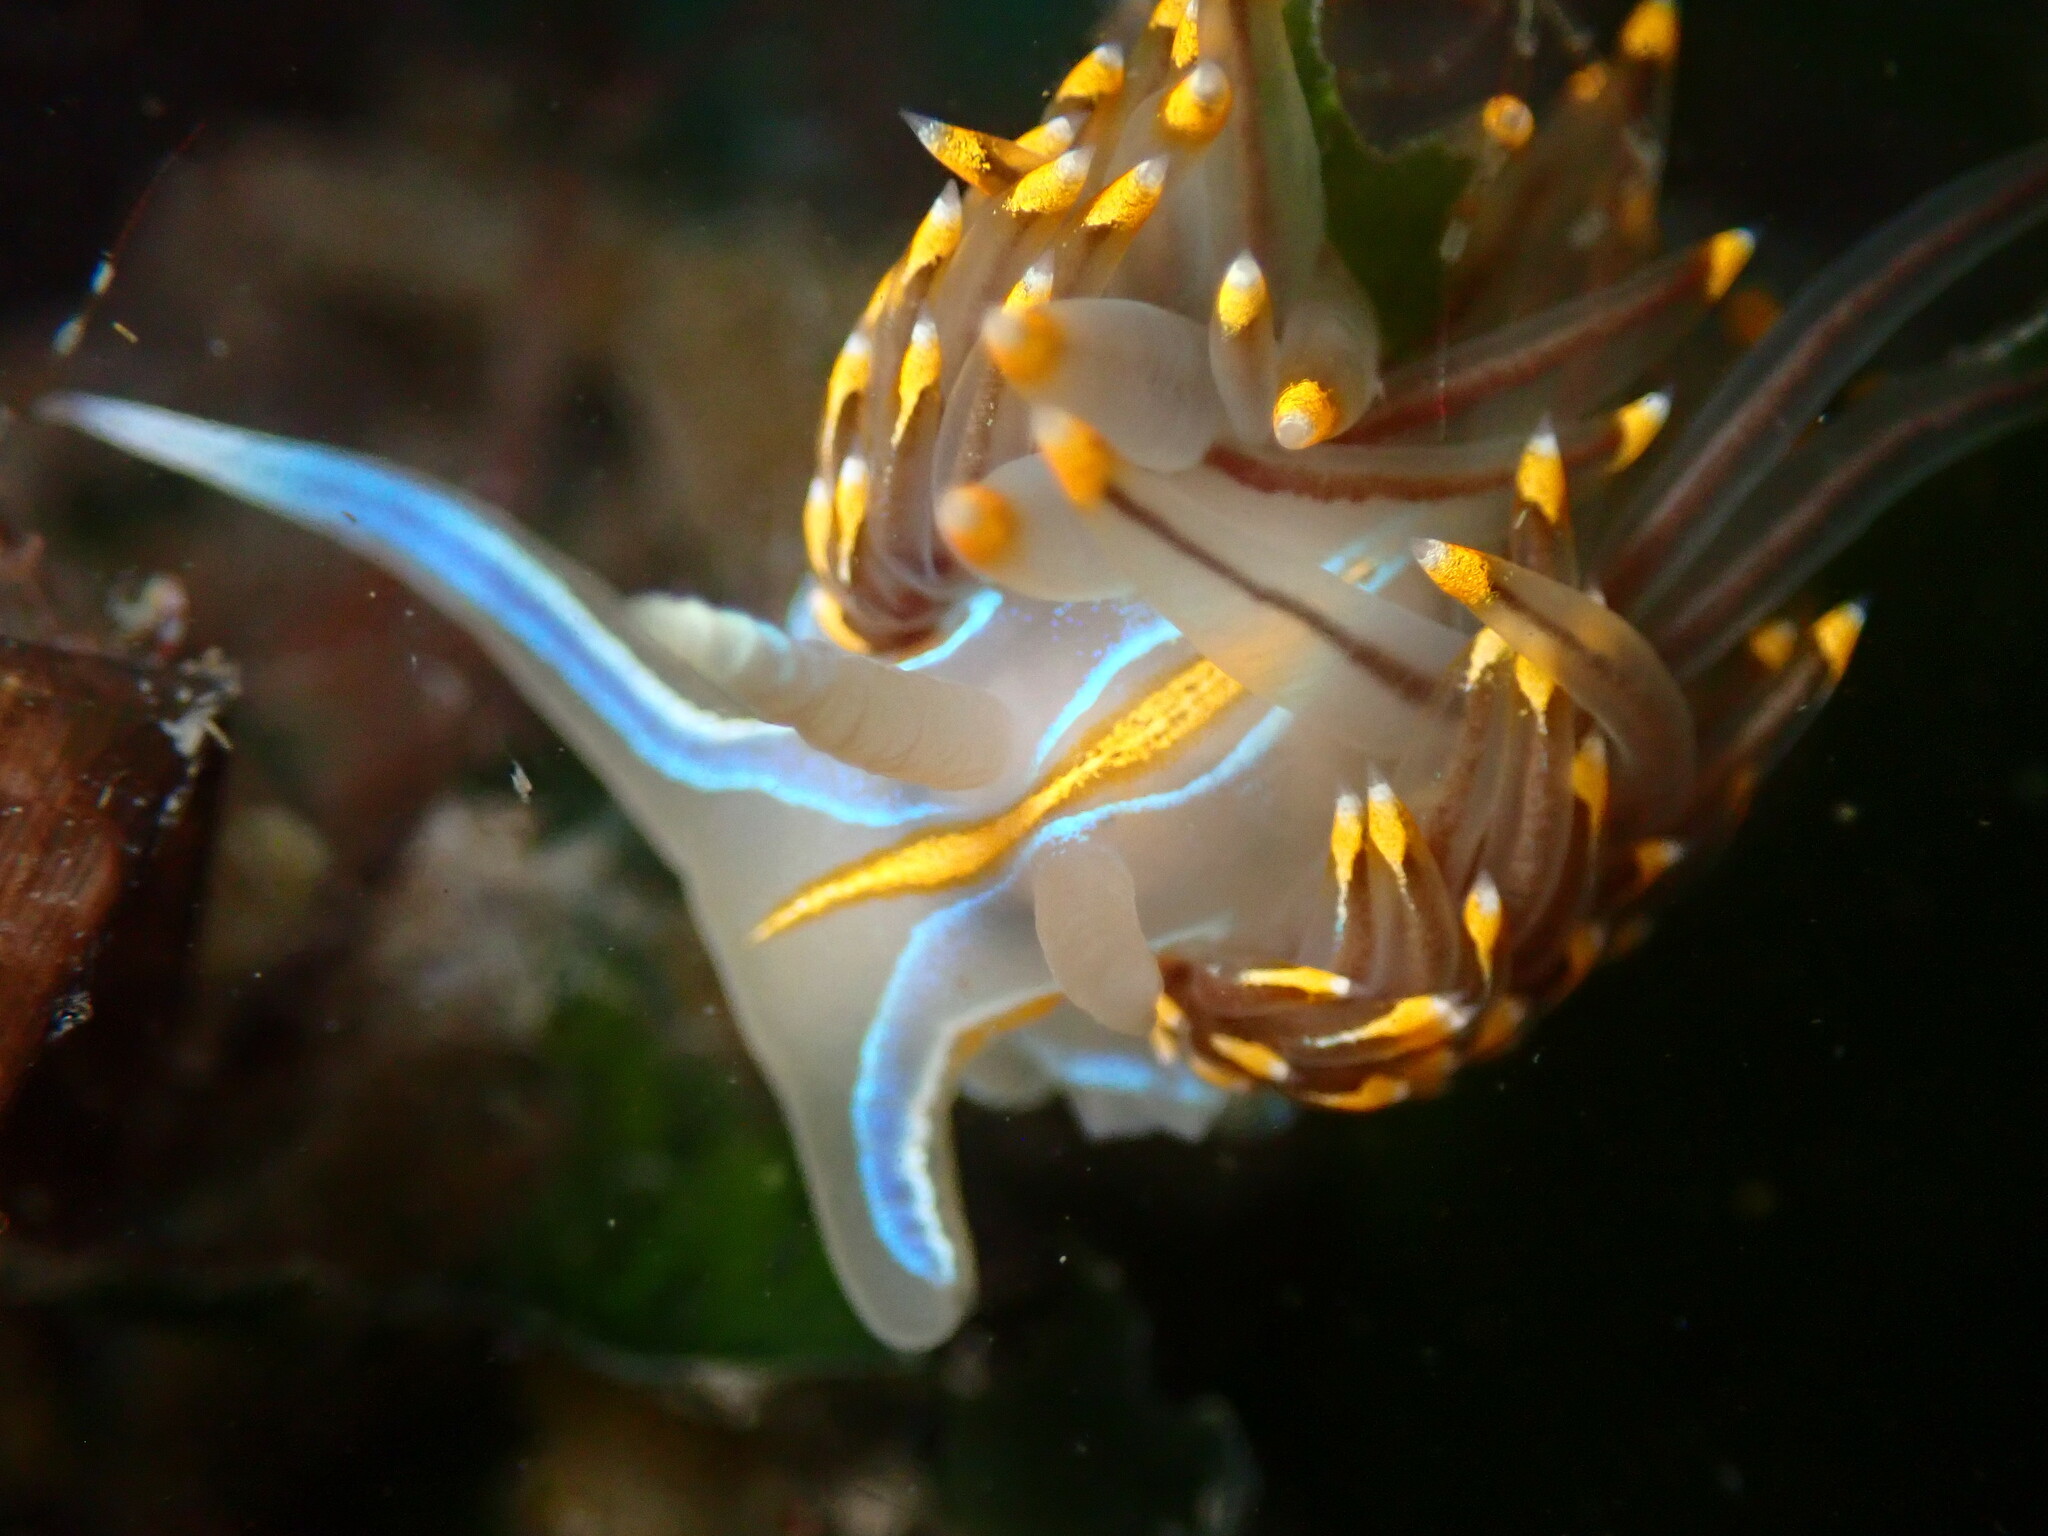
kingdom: Animalia
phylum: Mollusca
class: Gastropoda
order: Nudibranchia
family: Myrrhinidae
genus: Hermissenda
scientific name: Hermissenda opalescens
